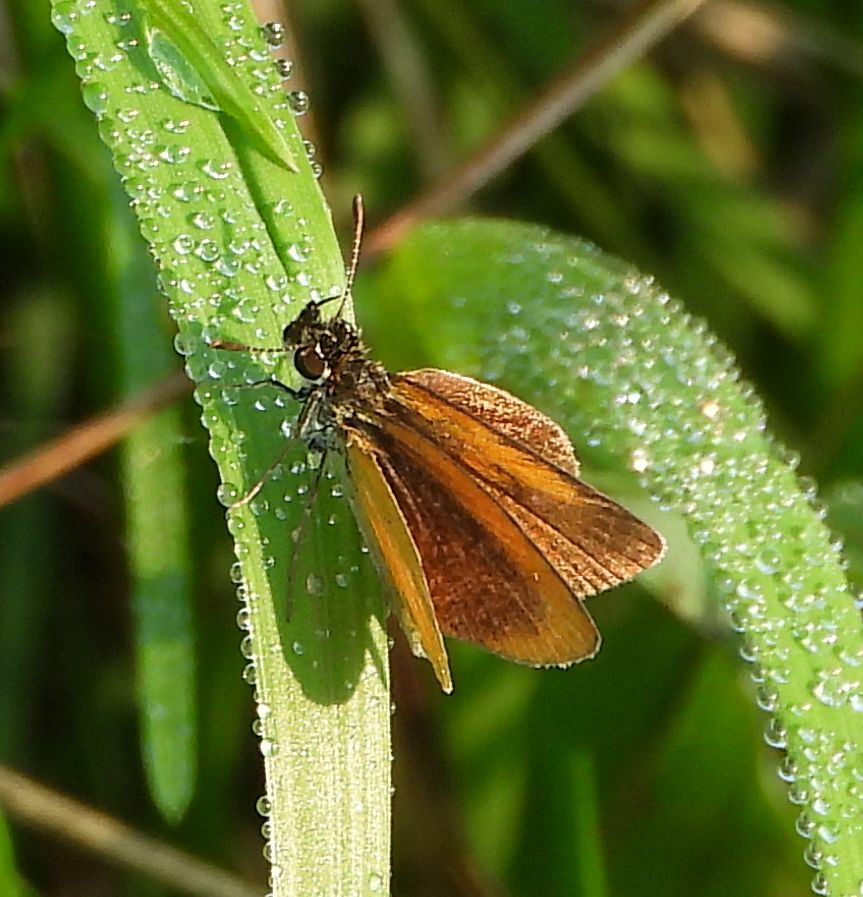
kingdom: Animalia
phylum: Arthropoda
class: Insecta
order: Lepidoptera
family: Hesperiidae
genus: Ancyloxypha
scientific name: Ancyloxypha numitor
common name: Least skipper
